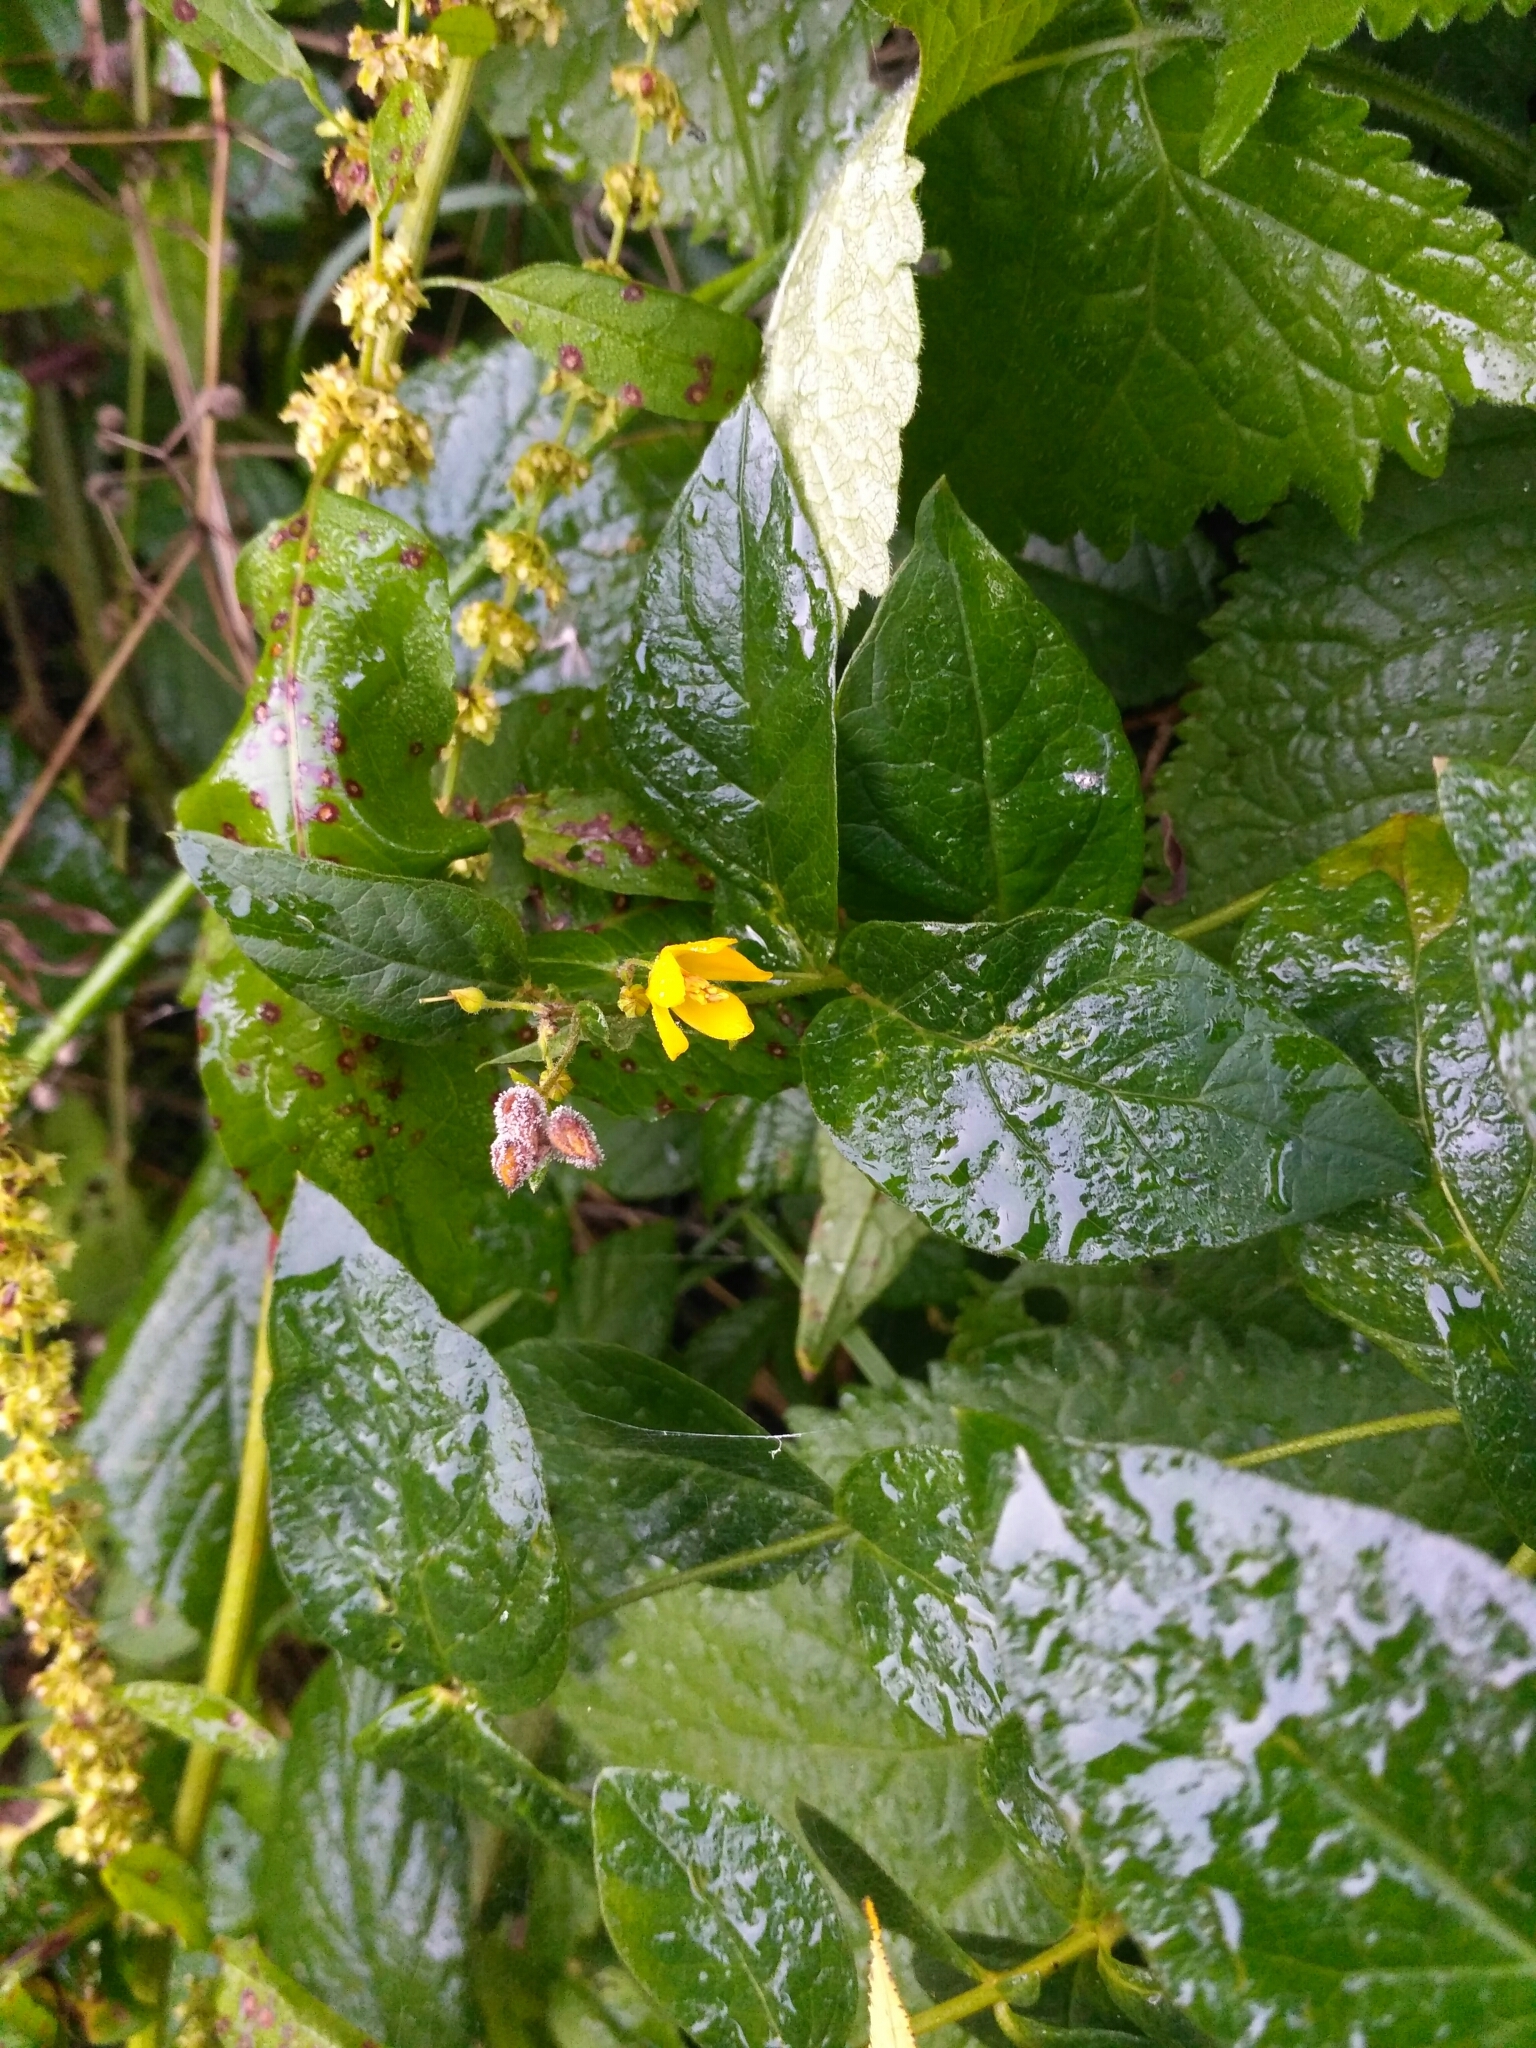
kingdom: Plantae
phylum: Tracheophyta
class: Magnoliopsida
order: Ericales
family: Primulaceae
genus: Lysimachia
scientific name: Lysimachia vulgaris
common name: Yellow loosestrife
